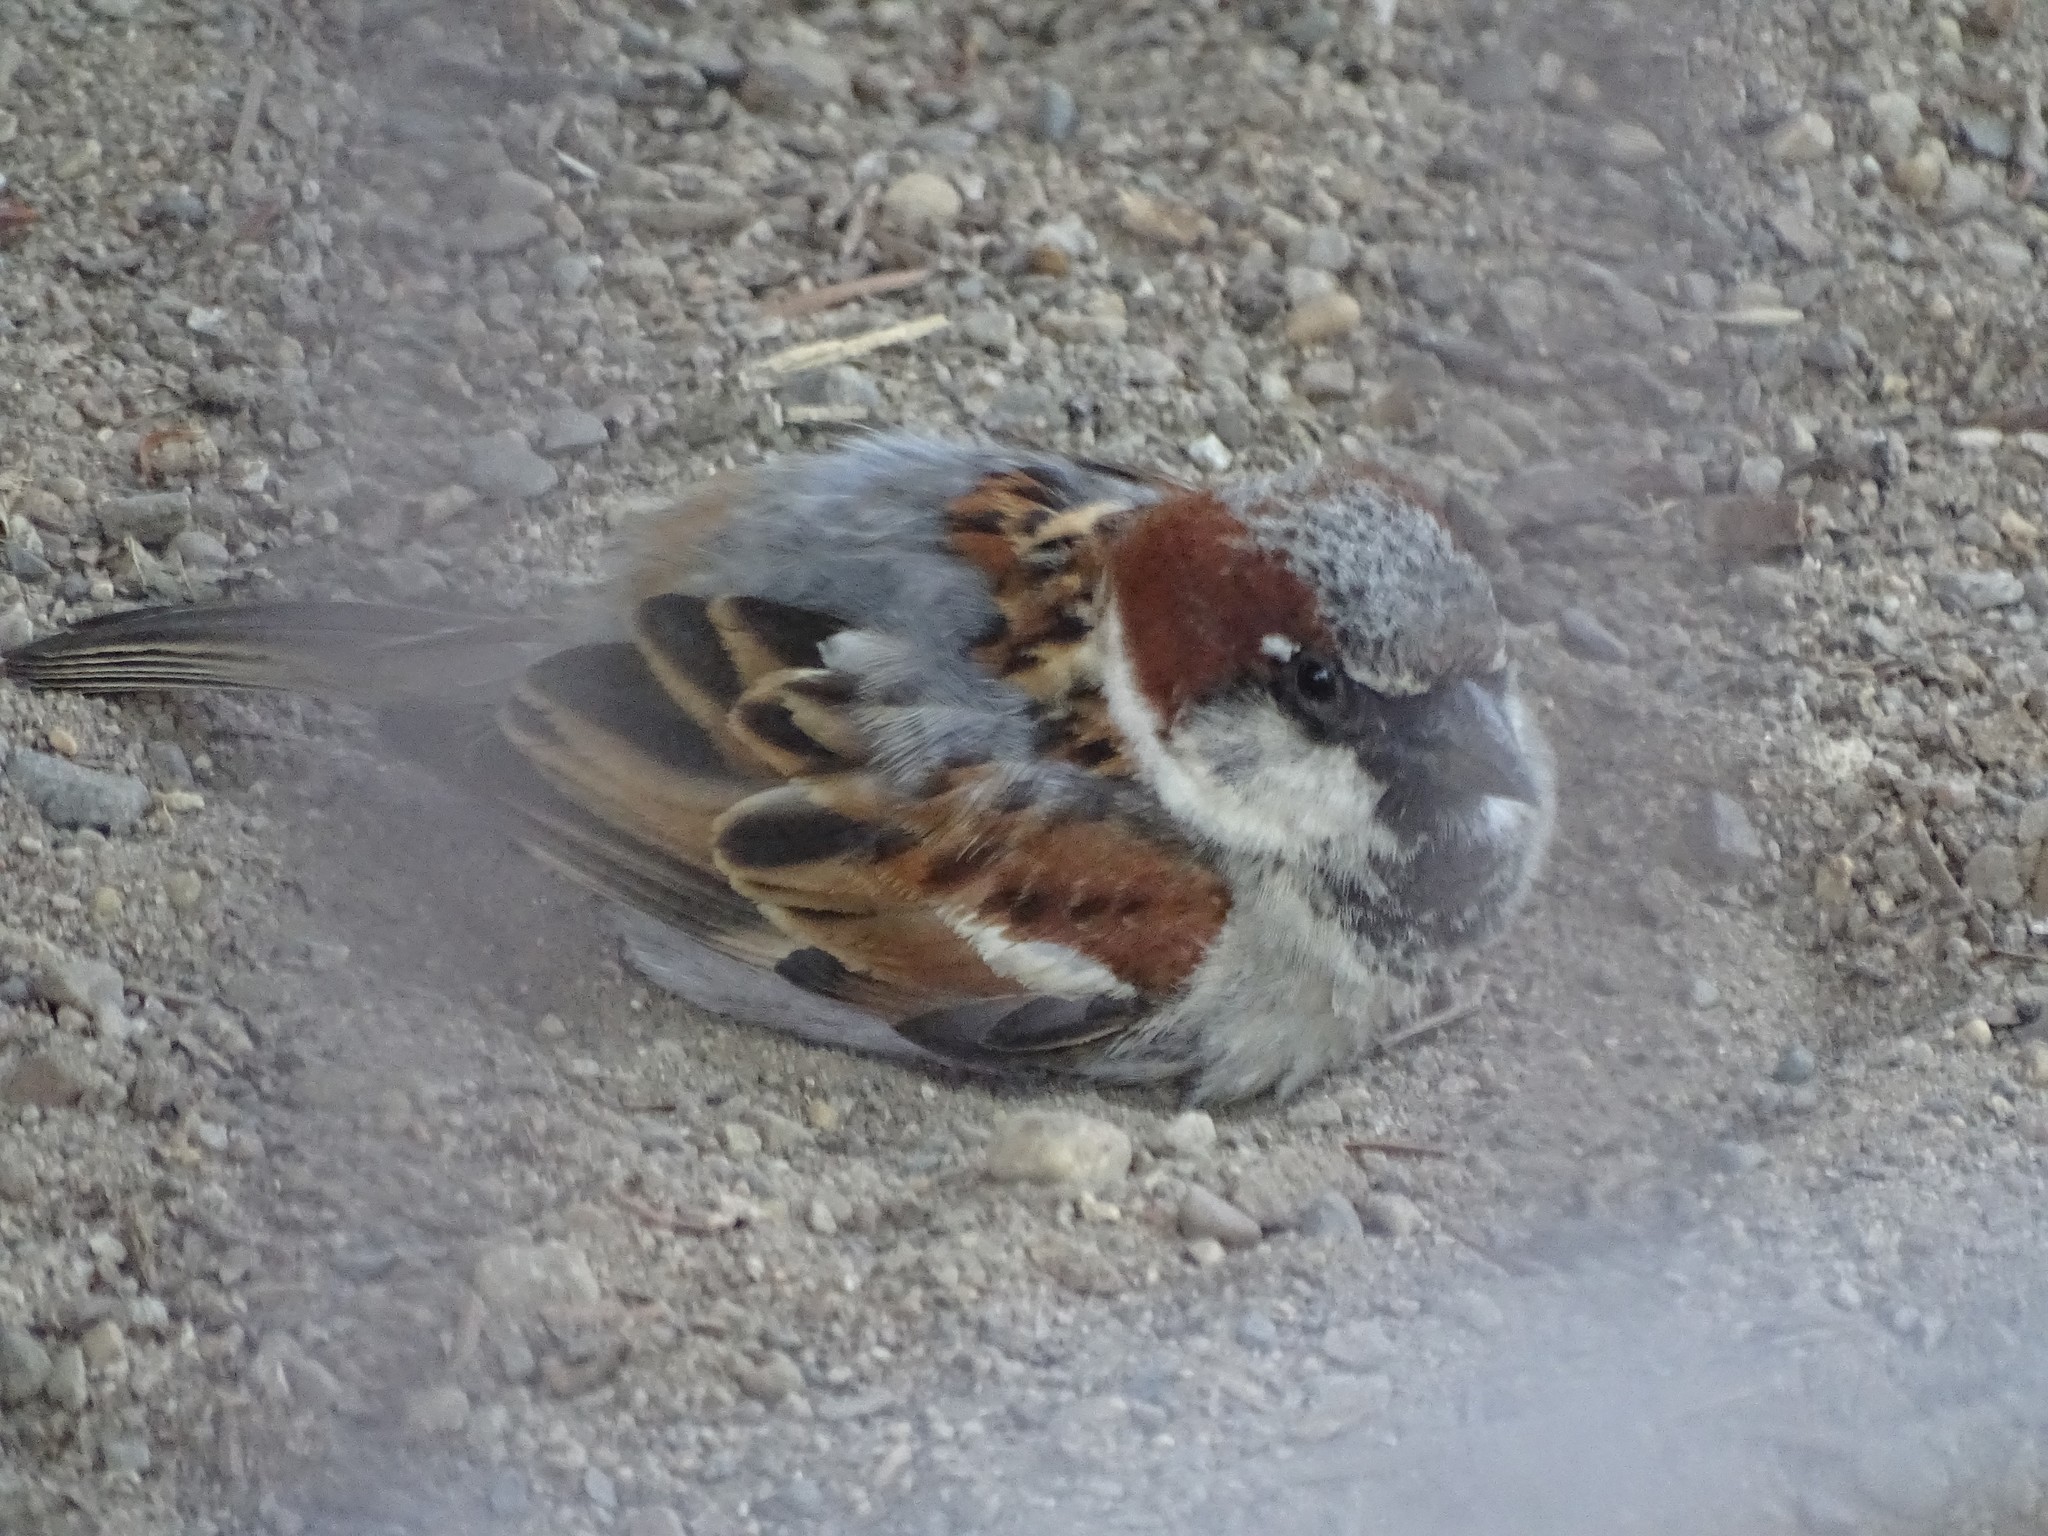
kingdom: Animalia
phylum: Chordata
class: Aves
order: Passeriformes
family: Passeridae
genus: Passer
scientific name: Passer domesticus
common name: House sparrow
